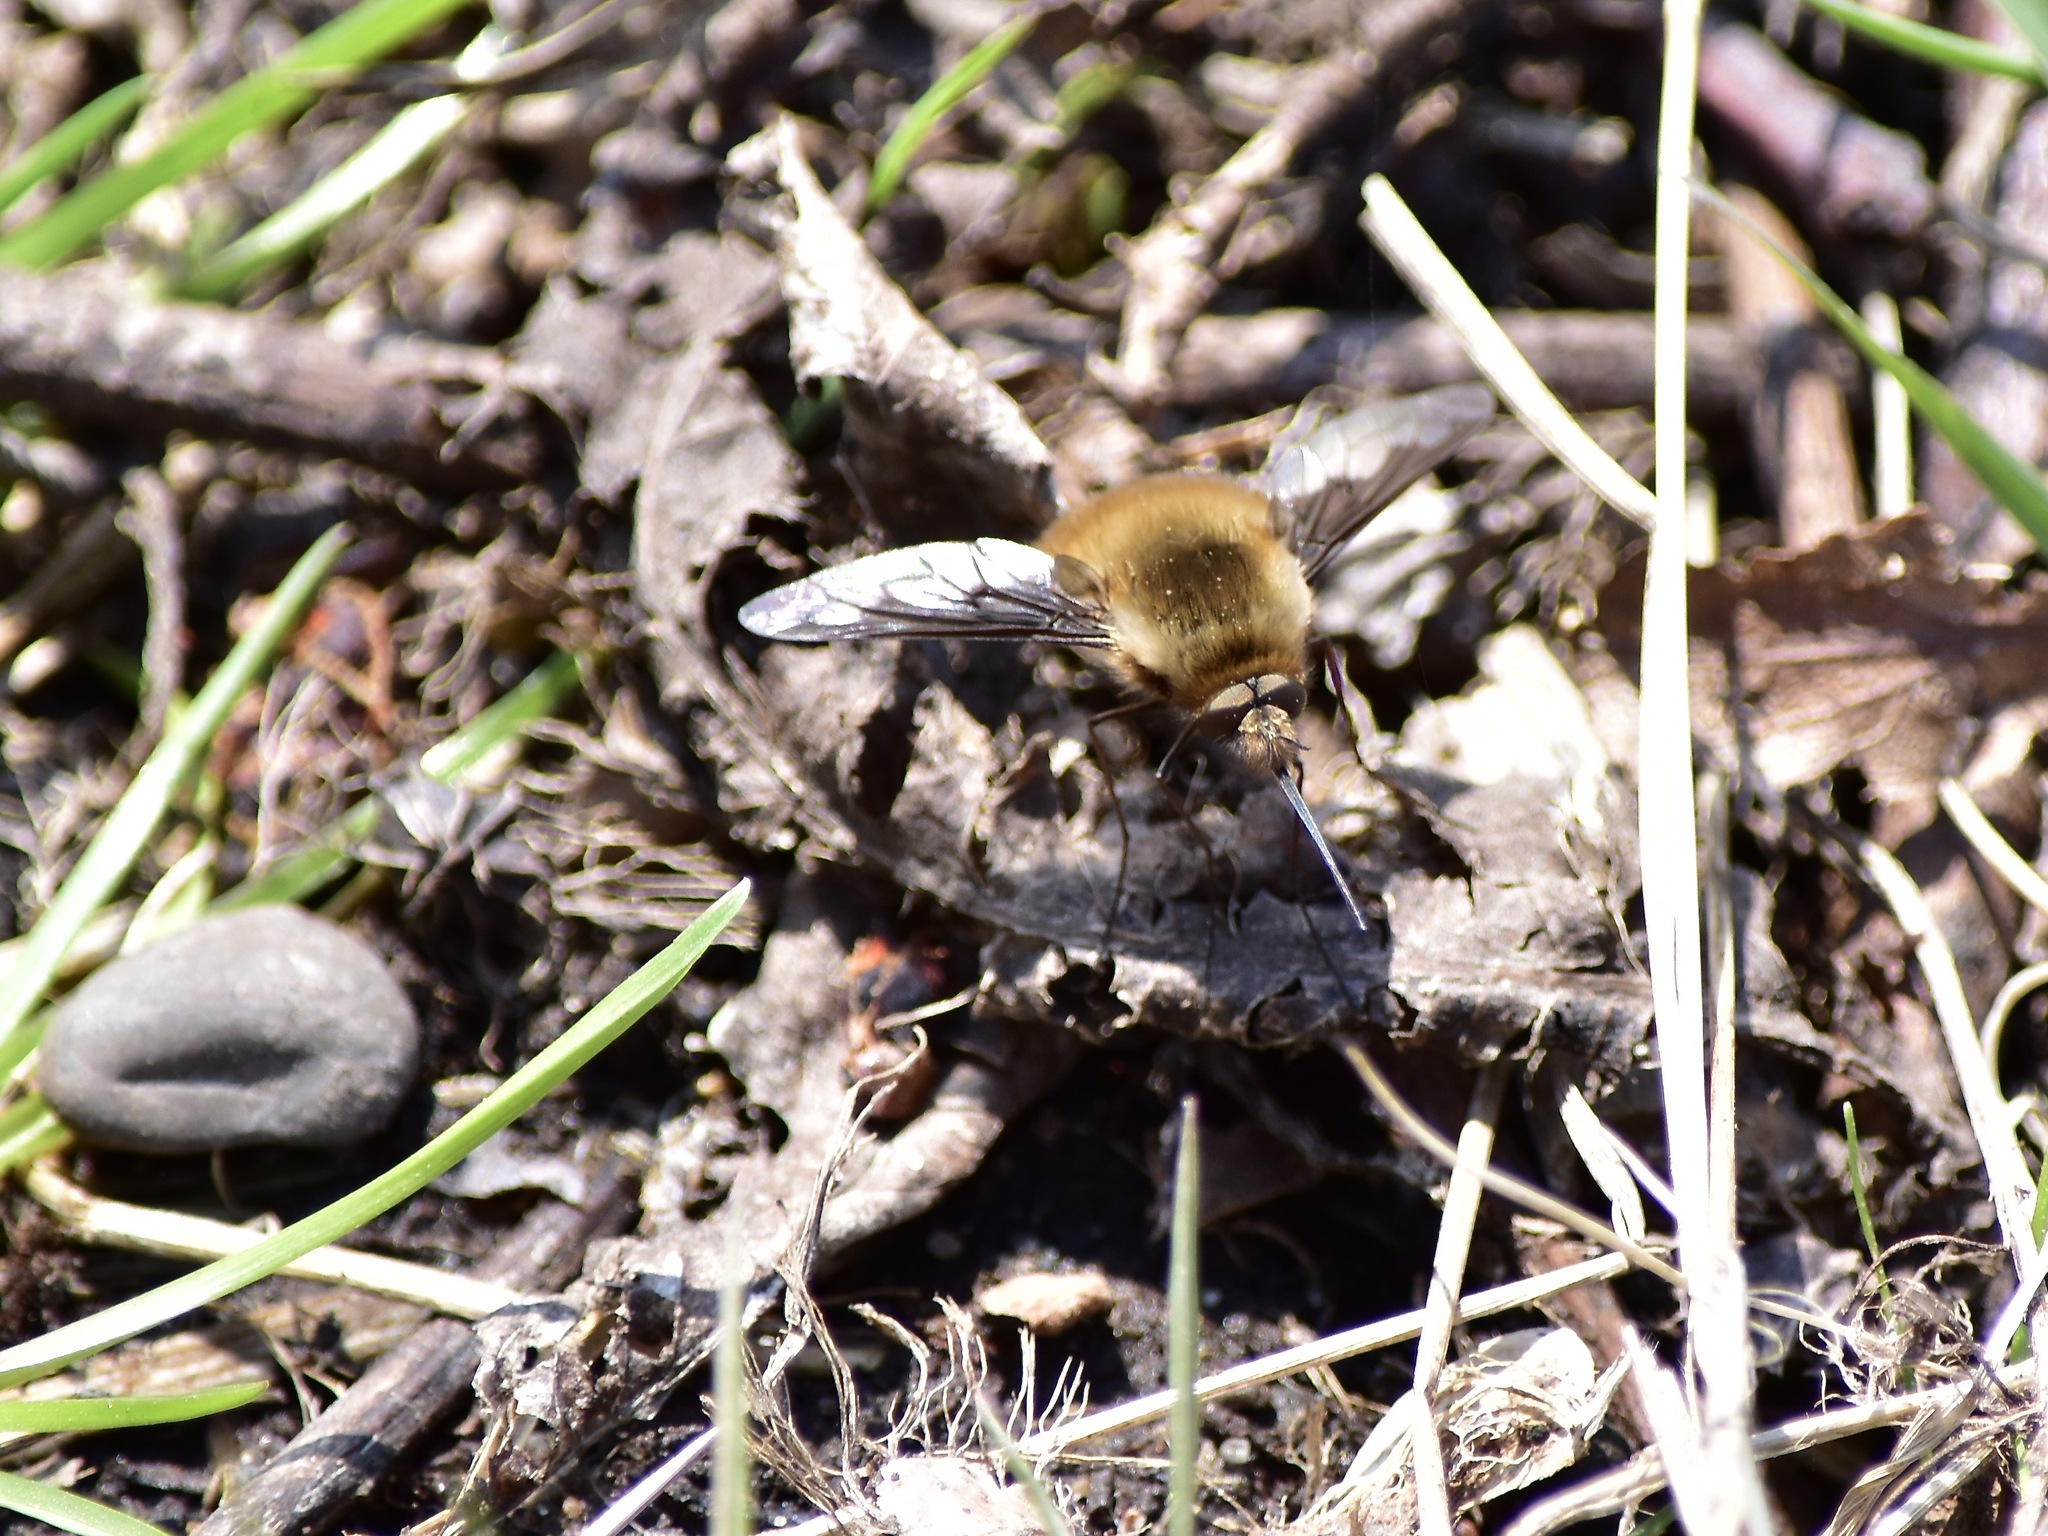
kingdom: Animalia
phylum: Arthropoda
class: Insecta
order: Diptera
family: Bombyliidae
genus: Bombylius
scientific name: Bombylius major
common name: Bee fly
